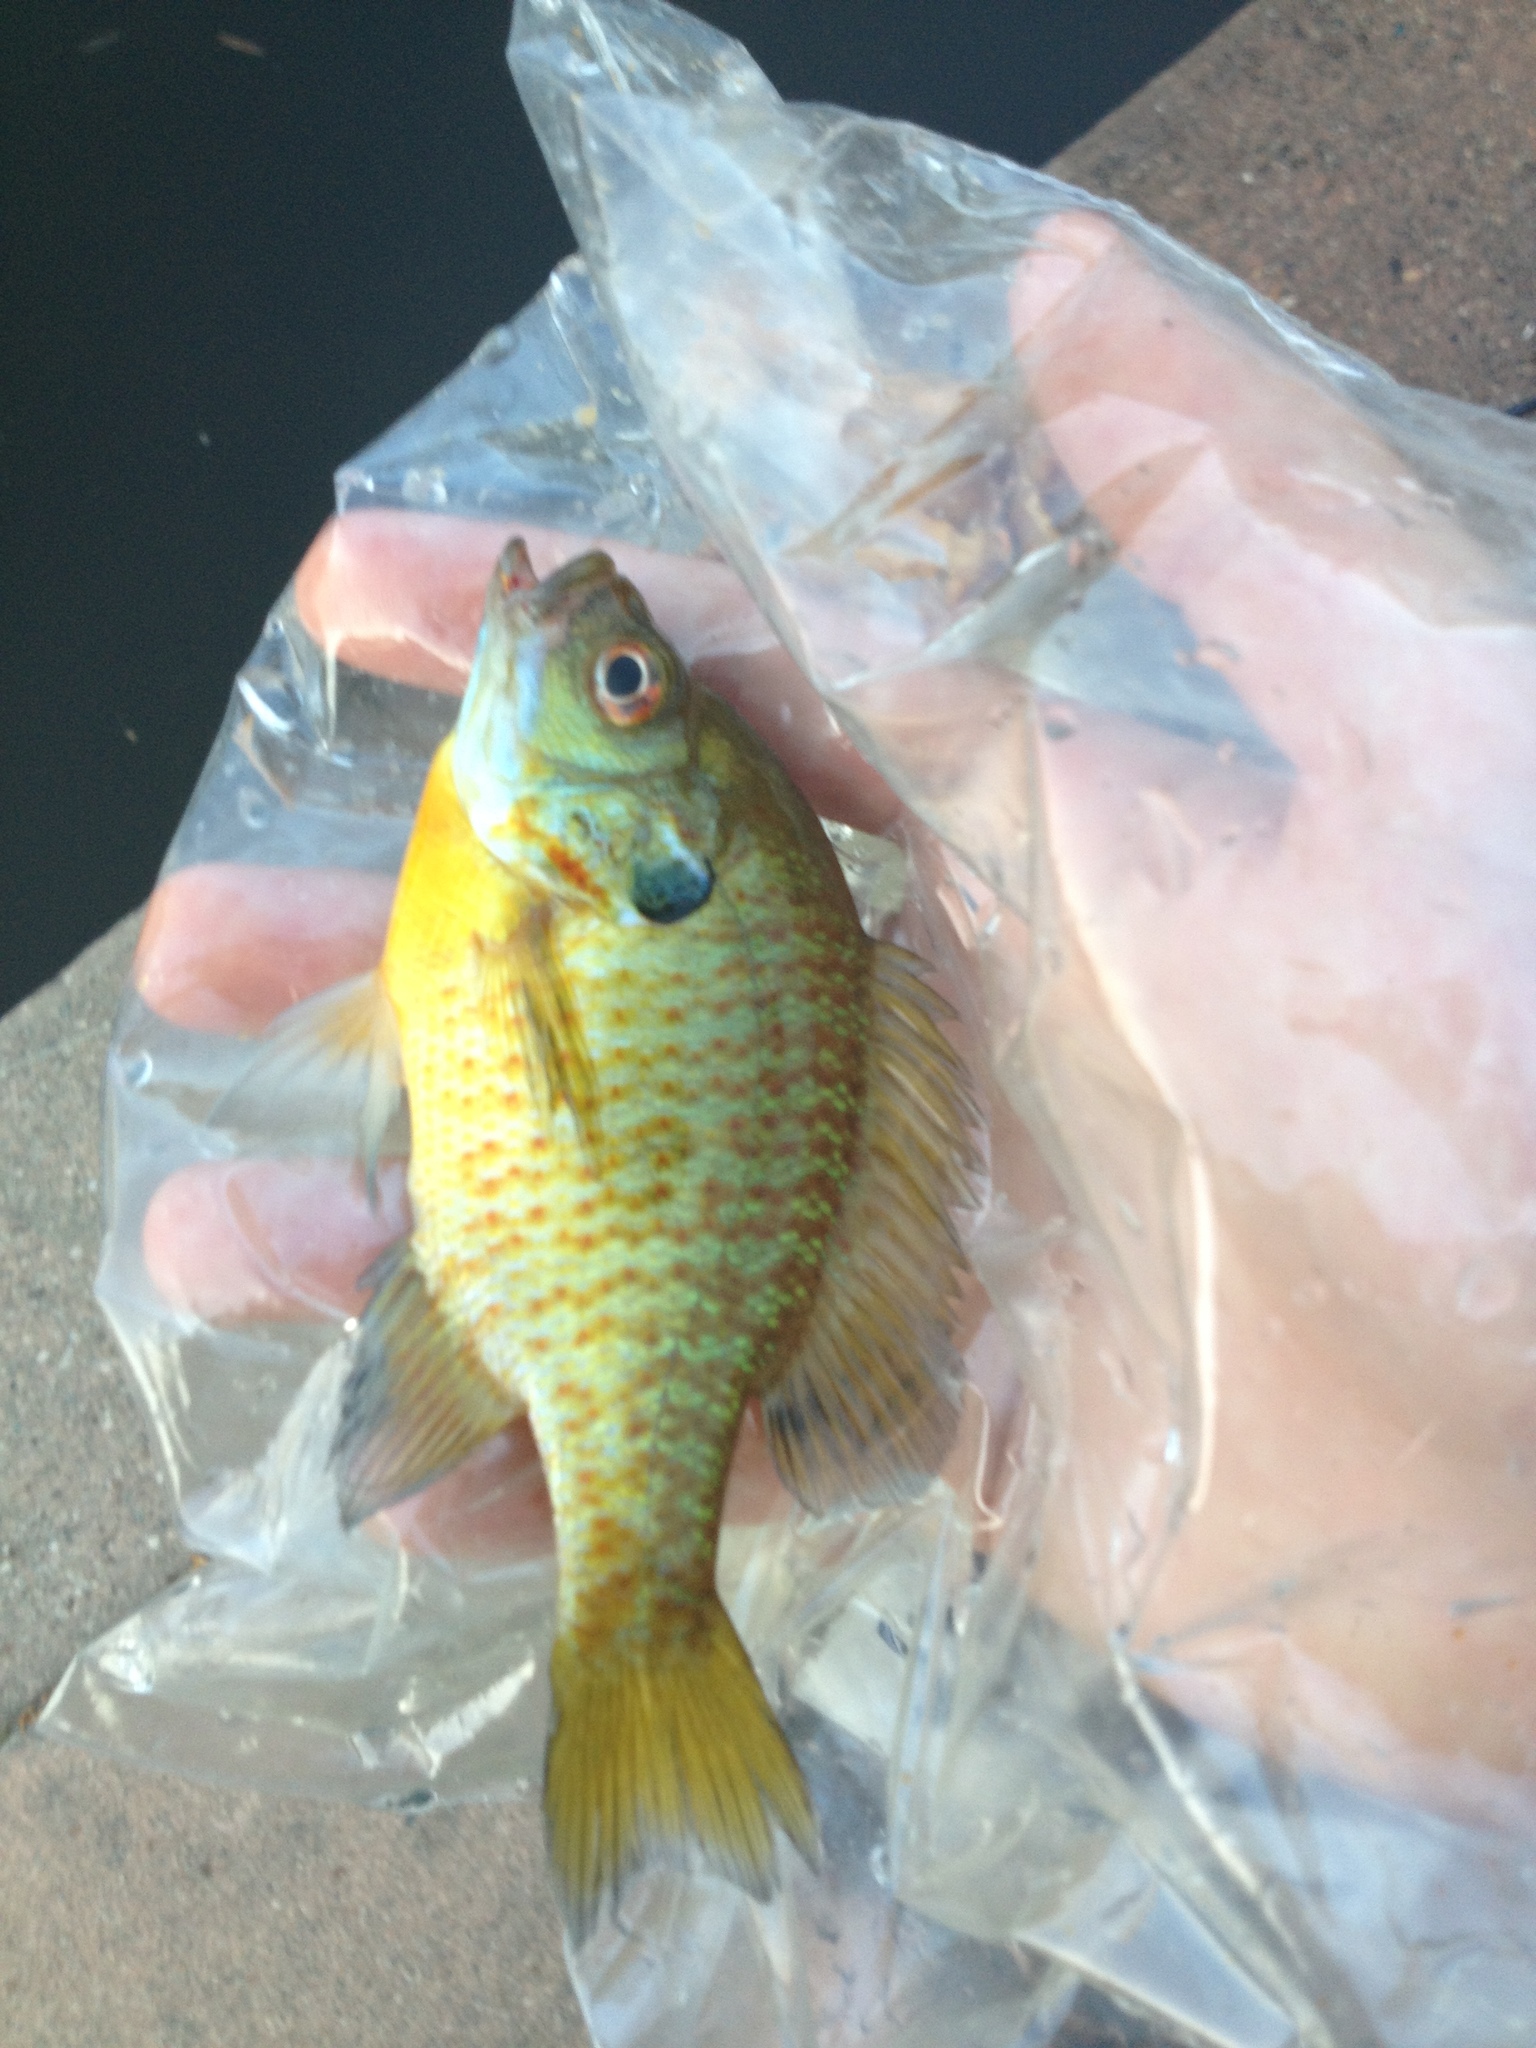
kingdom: Animalia
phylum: Chordata
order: Perciformes
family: Centrarchidae
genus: Lepomis
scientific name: Lepomis macrochirus
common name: Bluegill
